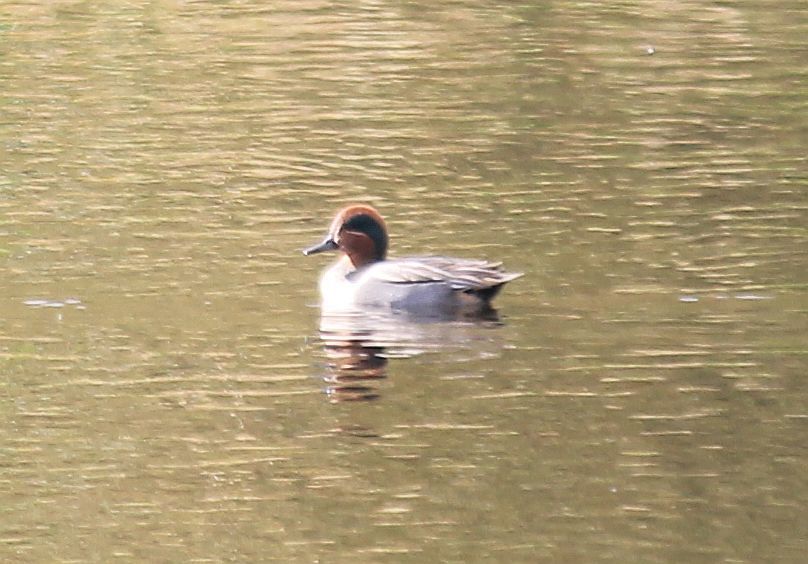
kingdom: Animalia
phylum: Chordata
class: Aves
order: Anseriformes
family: Anatidae
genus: Anas
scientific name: Anas crecca
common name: Eurasian teal
